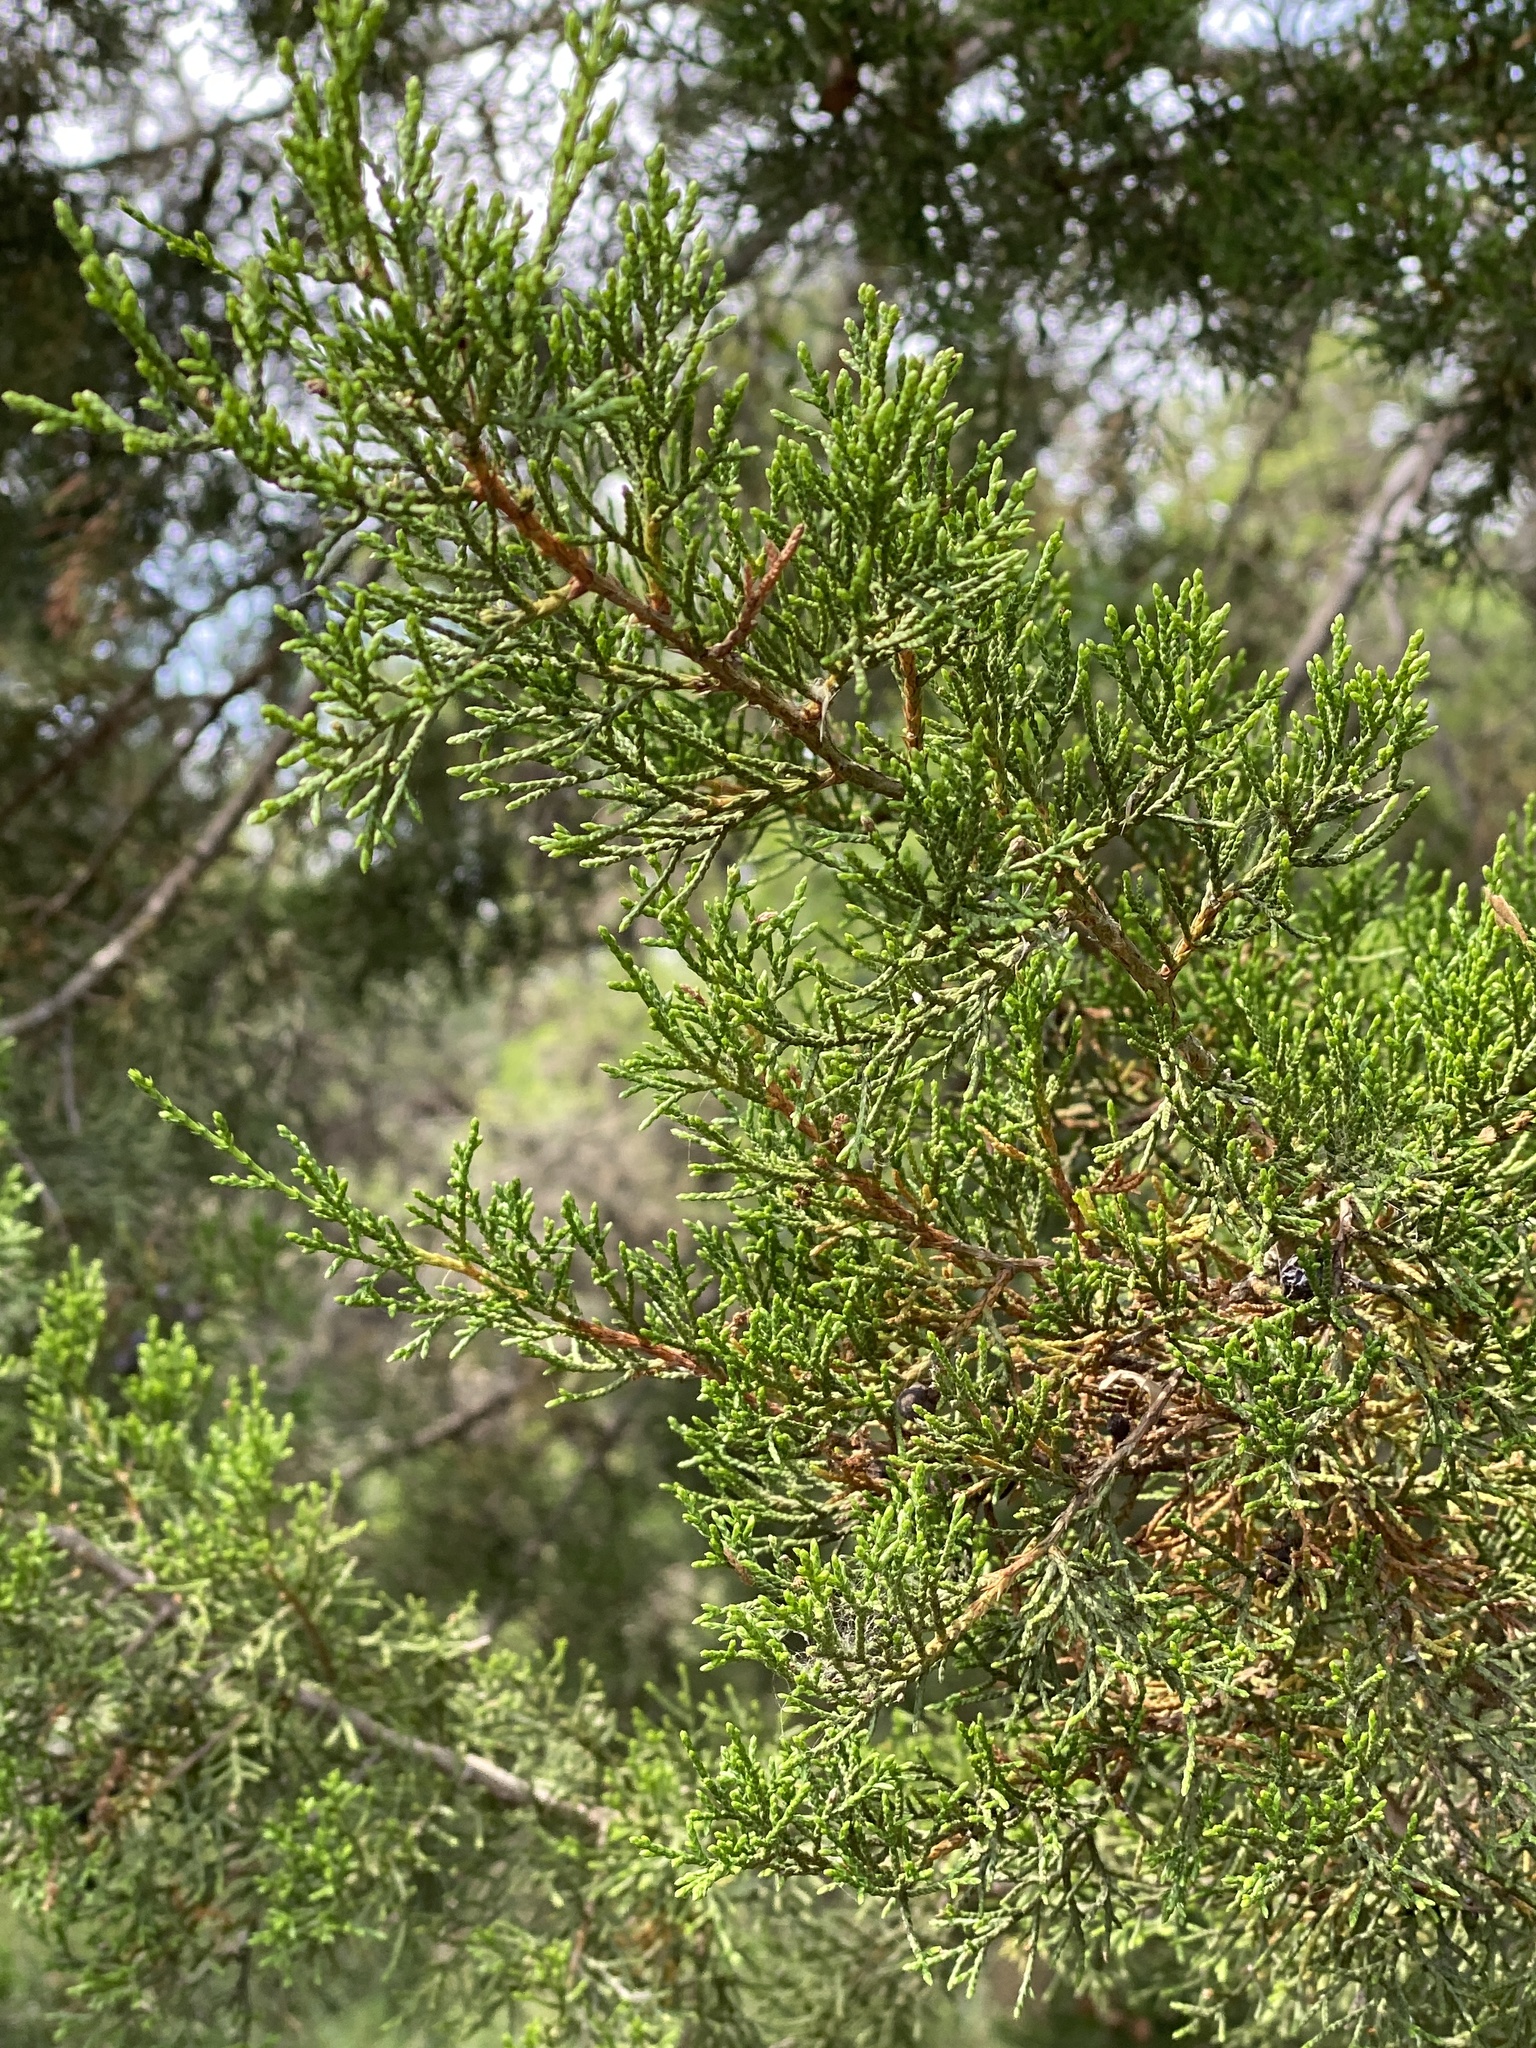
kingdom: Plantae
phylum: Tracheophyta
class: Pinopsida
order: Pinales
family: Cupressaceae
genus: Juniperus
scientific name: Juniperus ashei
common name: Mexican juniper
